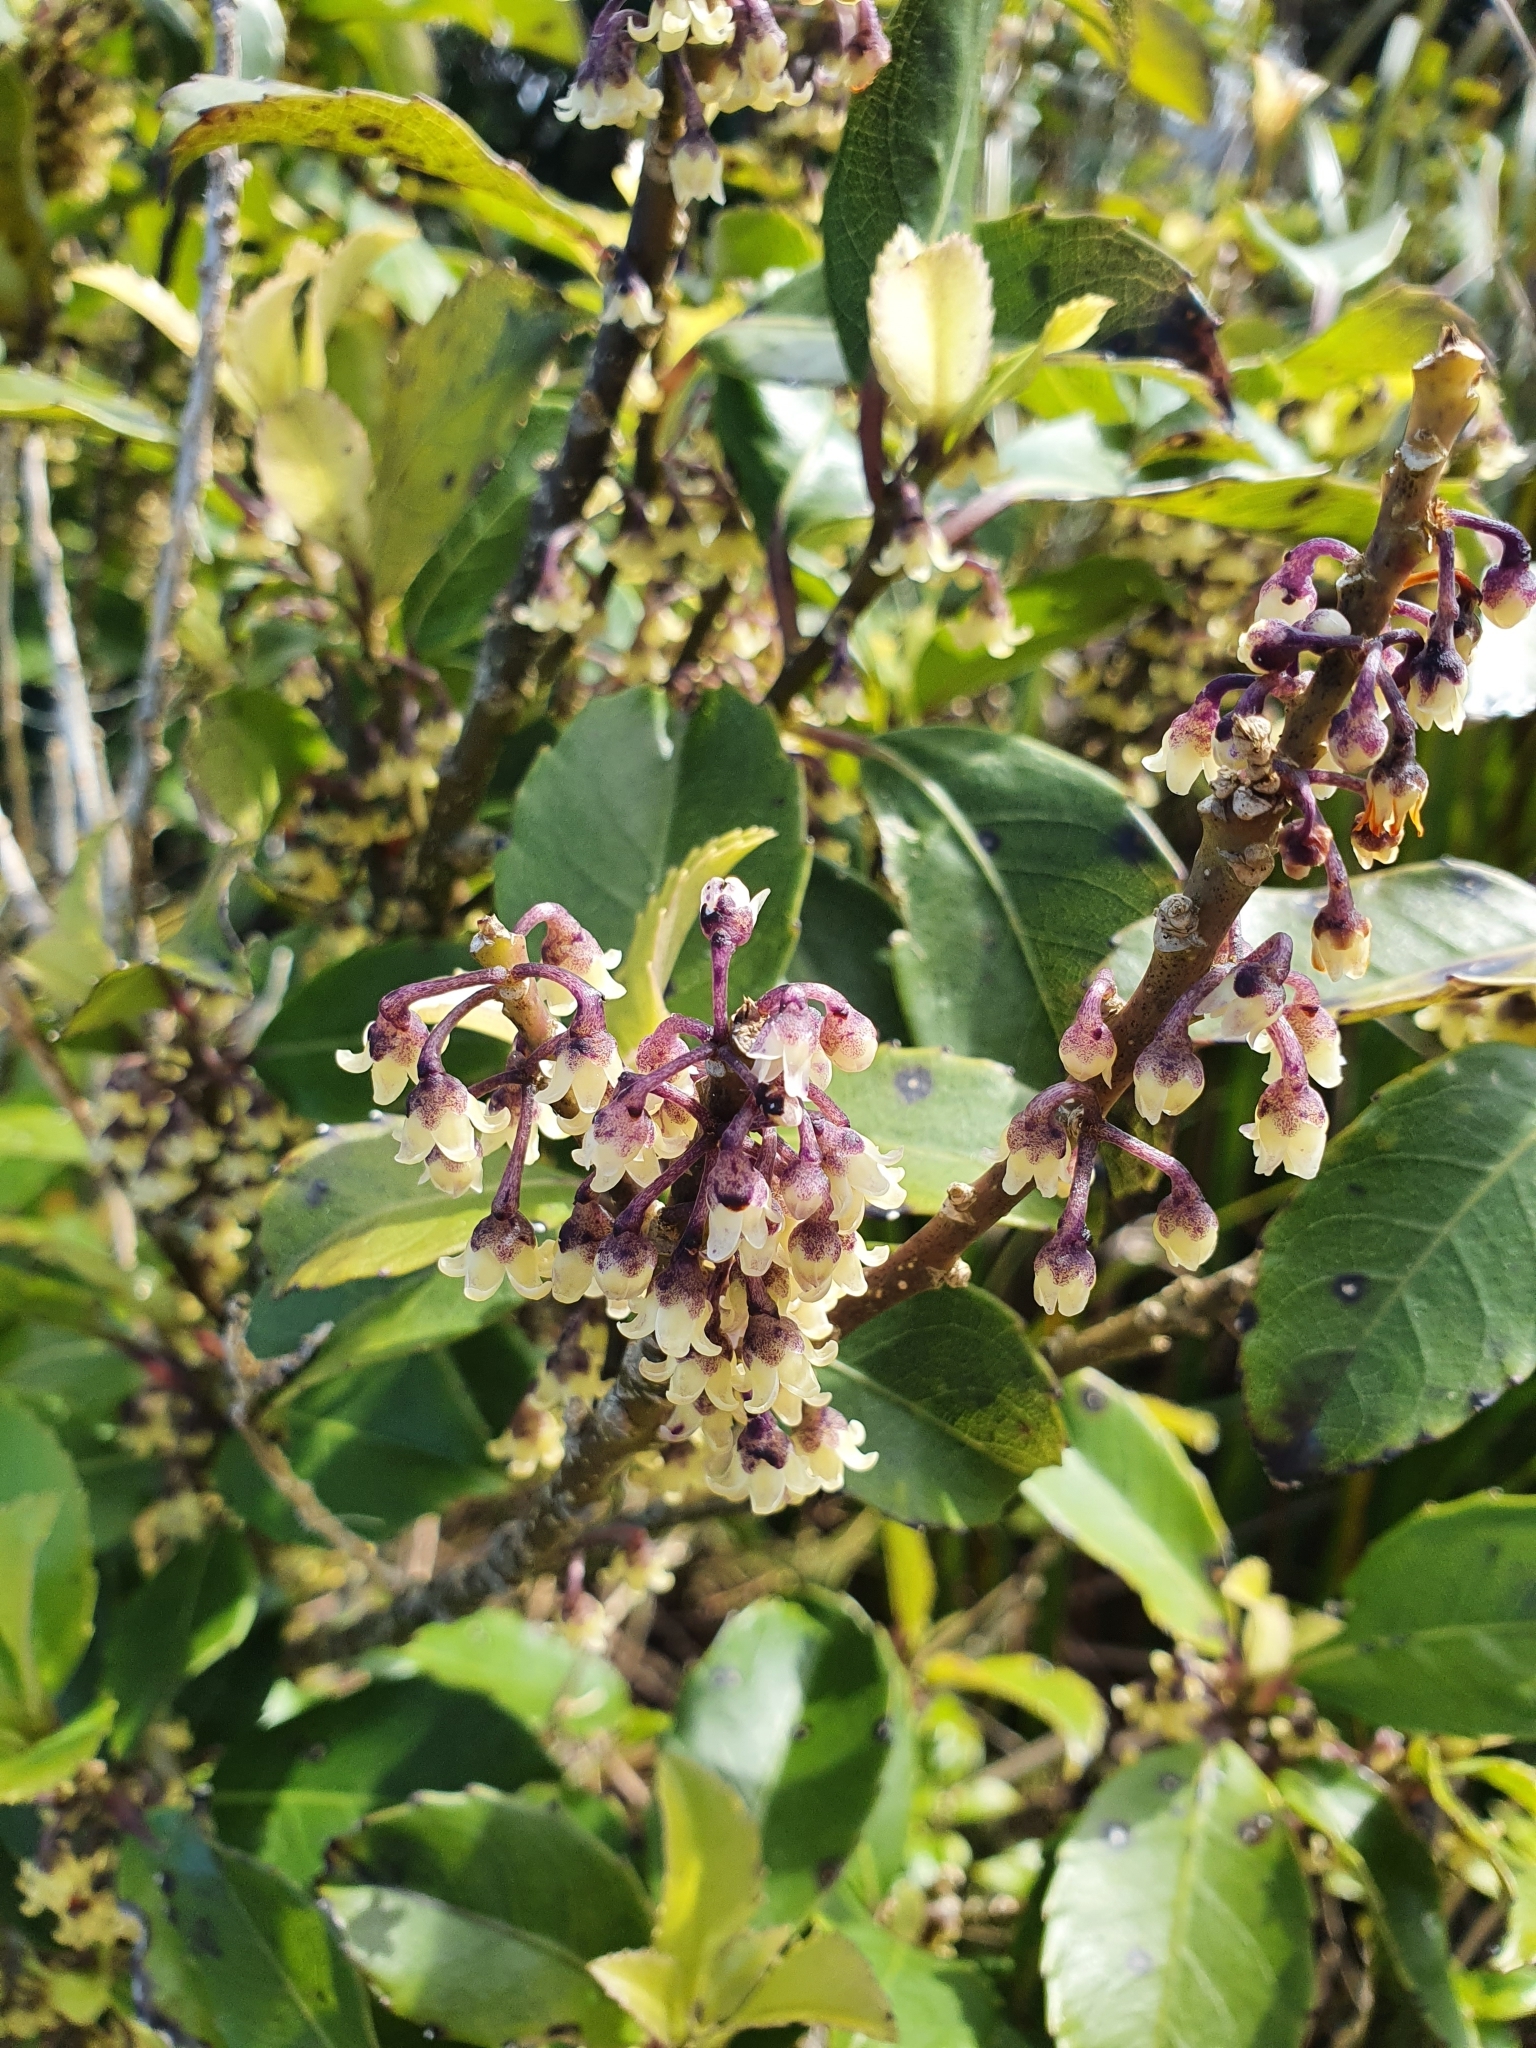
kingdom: Plantae
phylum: Tracheophyta
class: Magnoliopsida
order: Malpighiales
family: Violaceae
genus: Melicytus
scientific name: Melicytus macrophyllus
